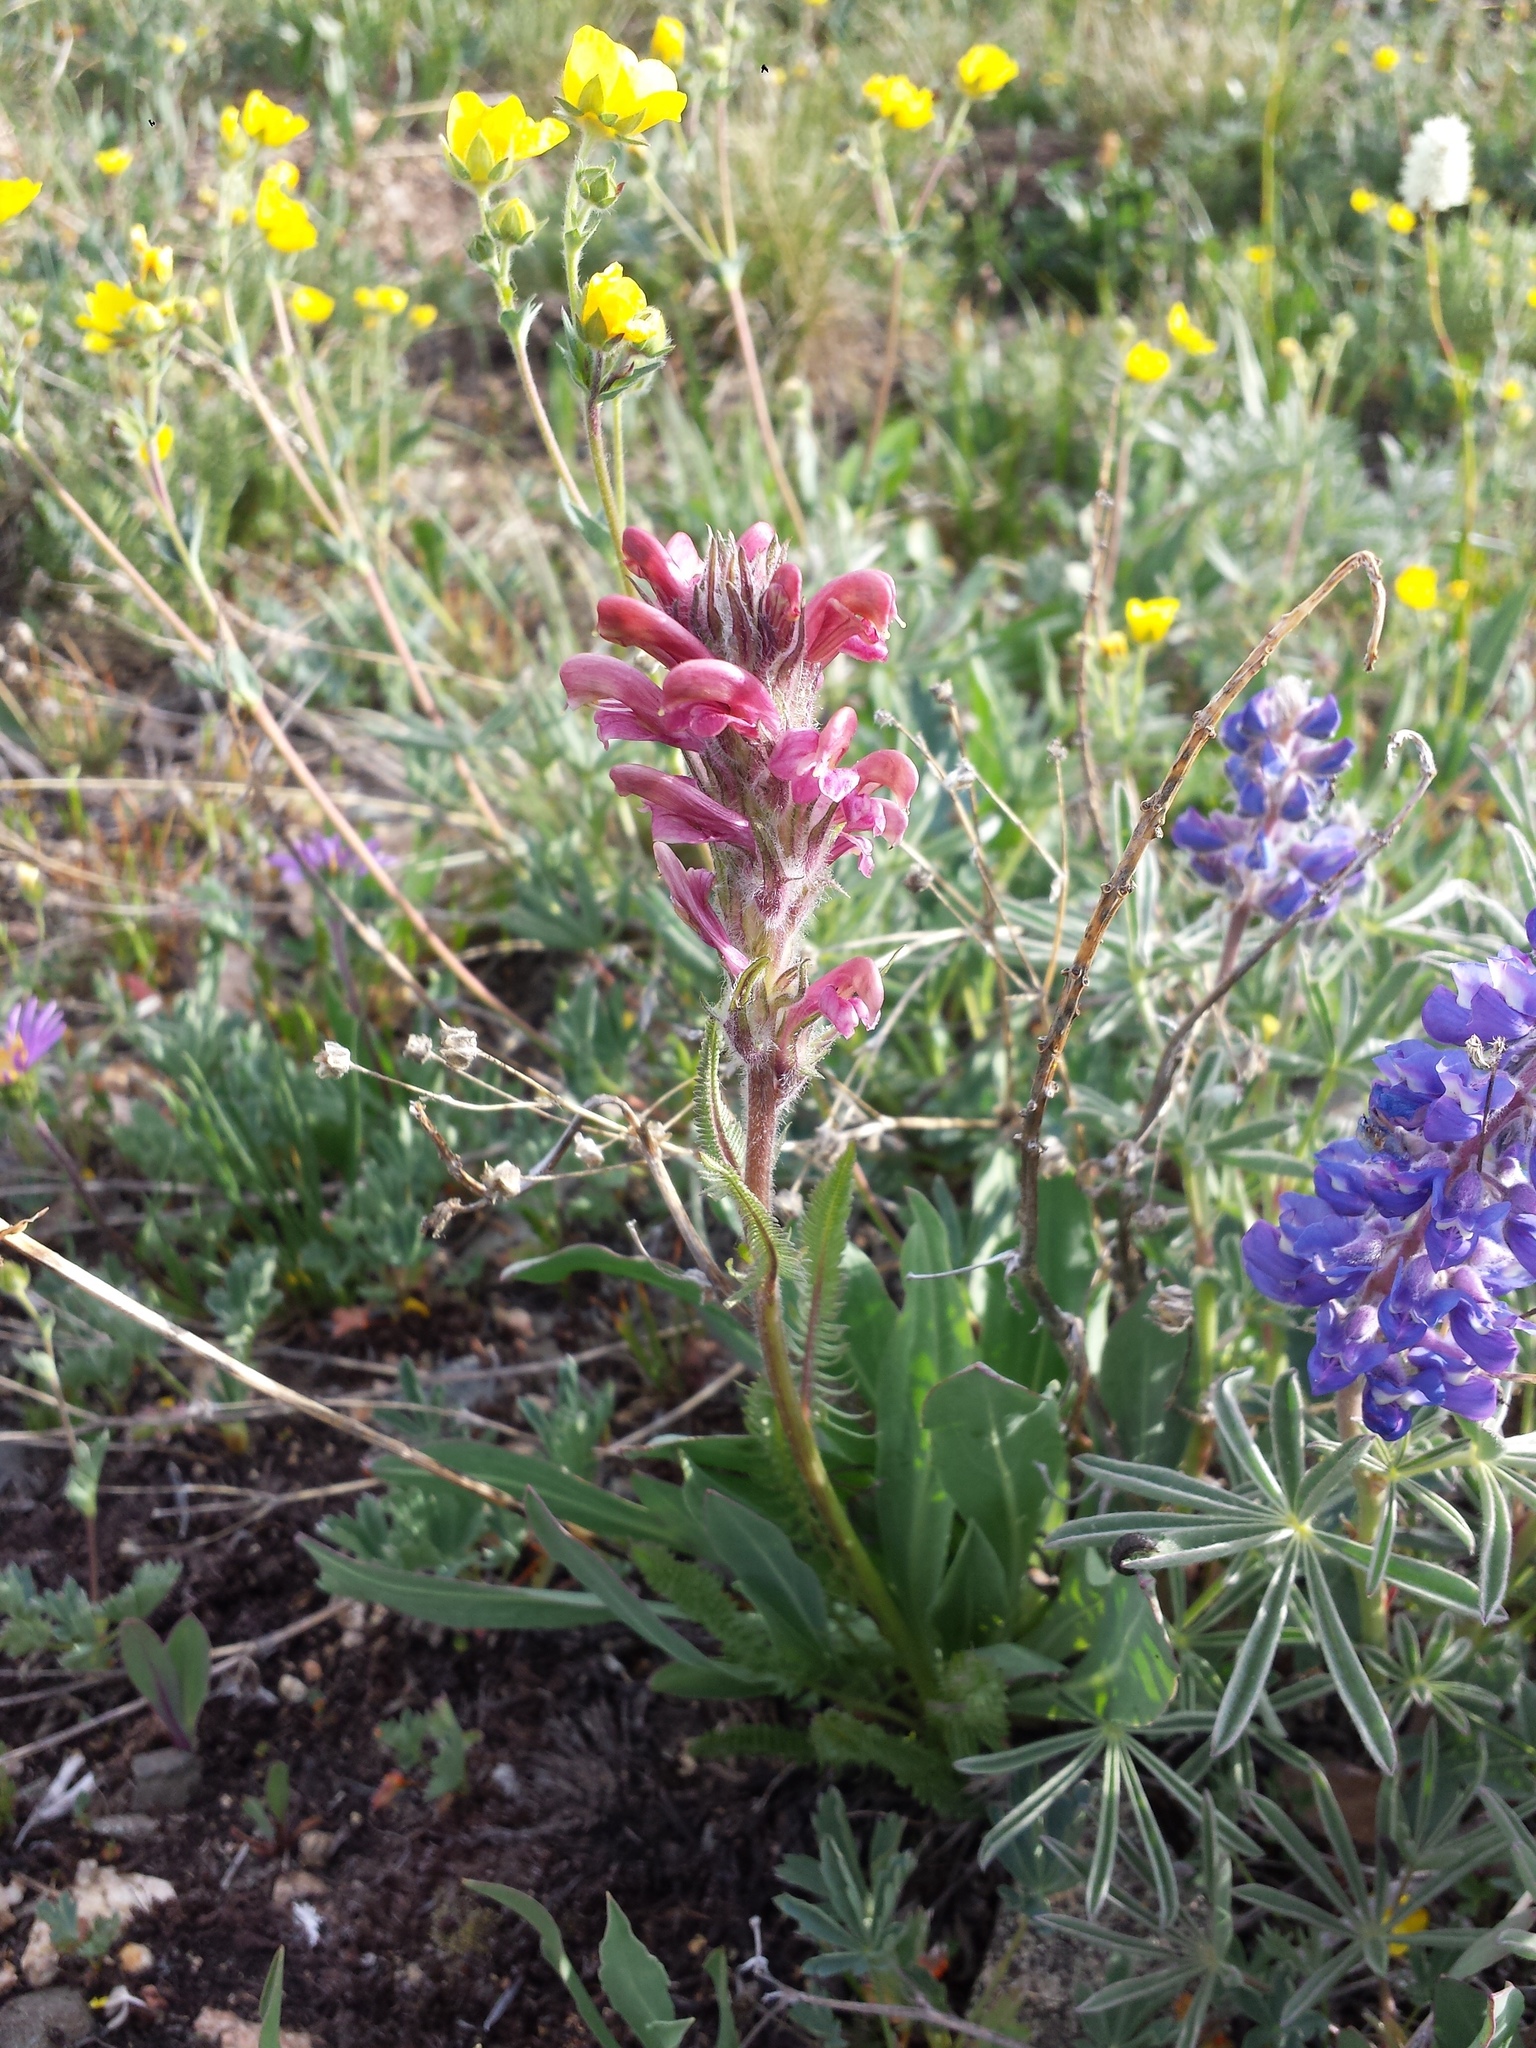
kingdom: Plantae
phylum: Tracheophyta
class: Magnoliopsida
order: Lamiales
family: Orobanchaceae
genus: Pedicularis
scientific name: Pedicularis cystopteridifolia
